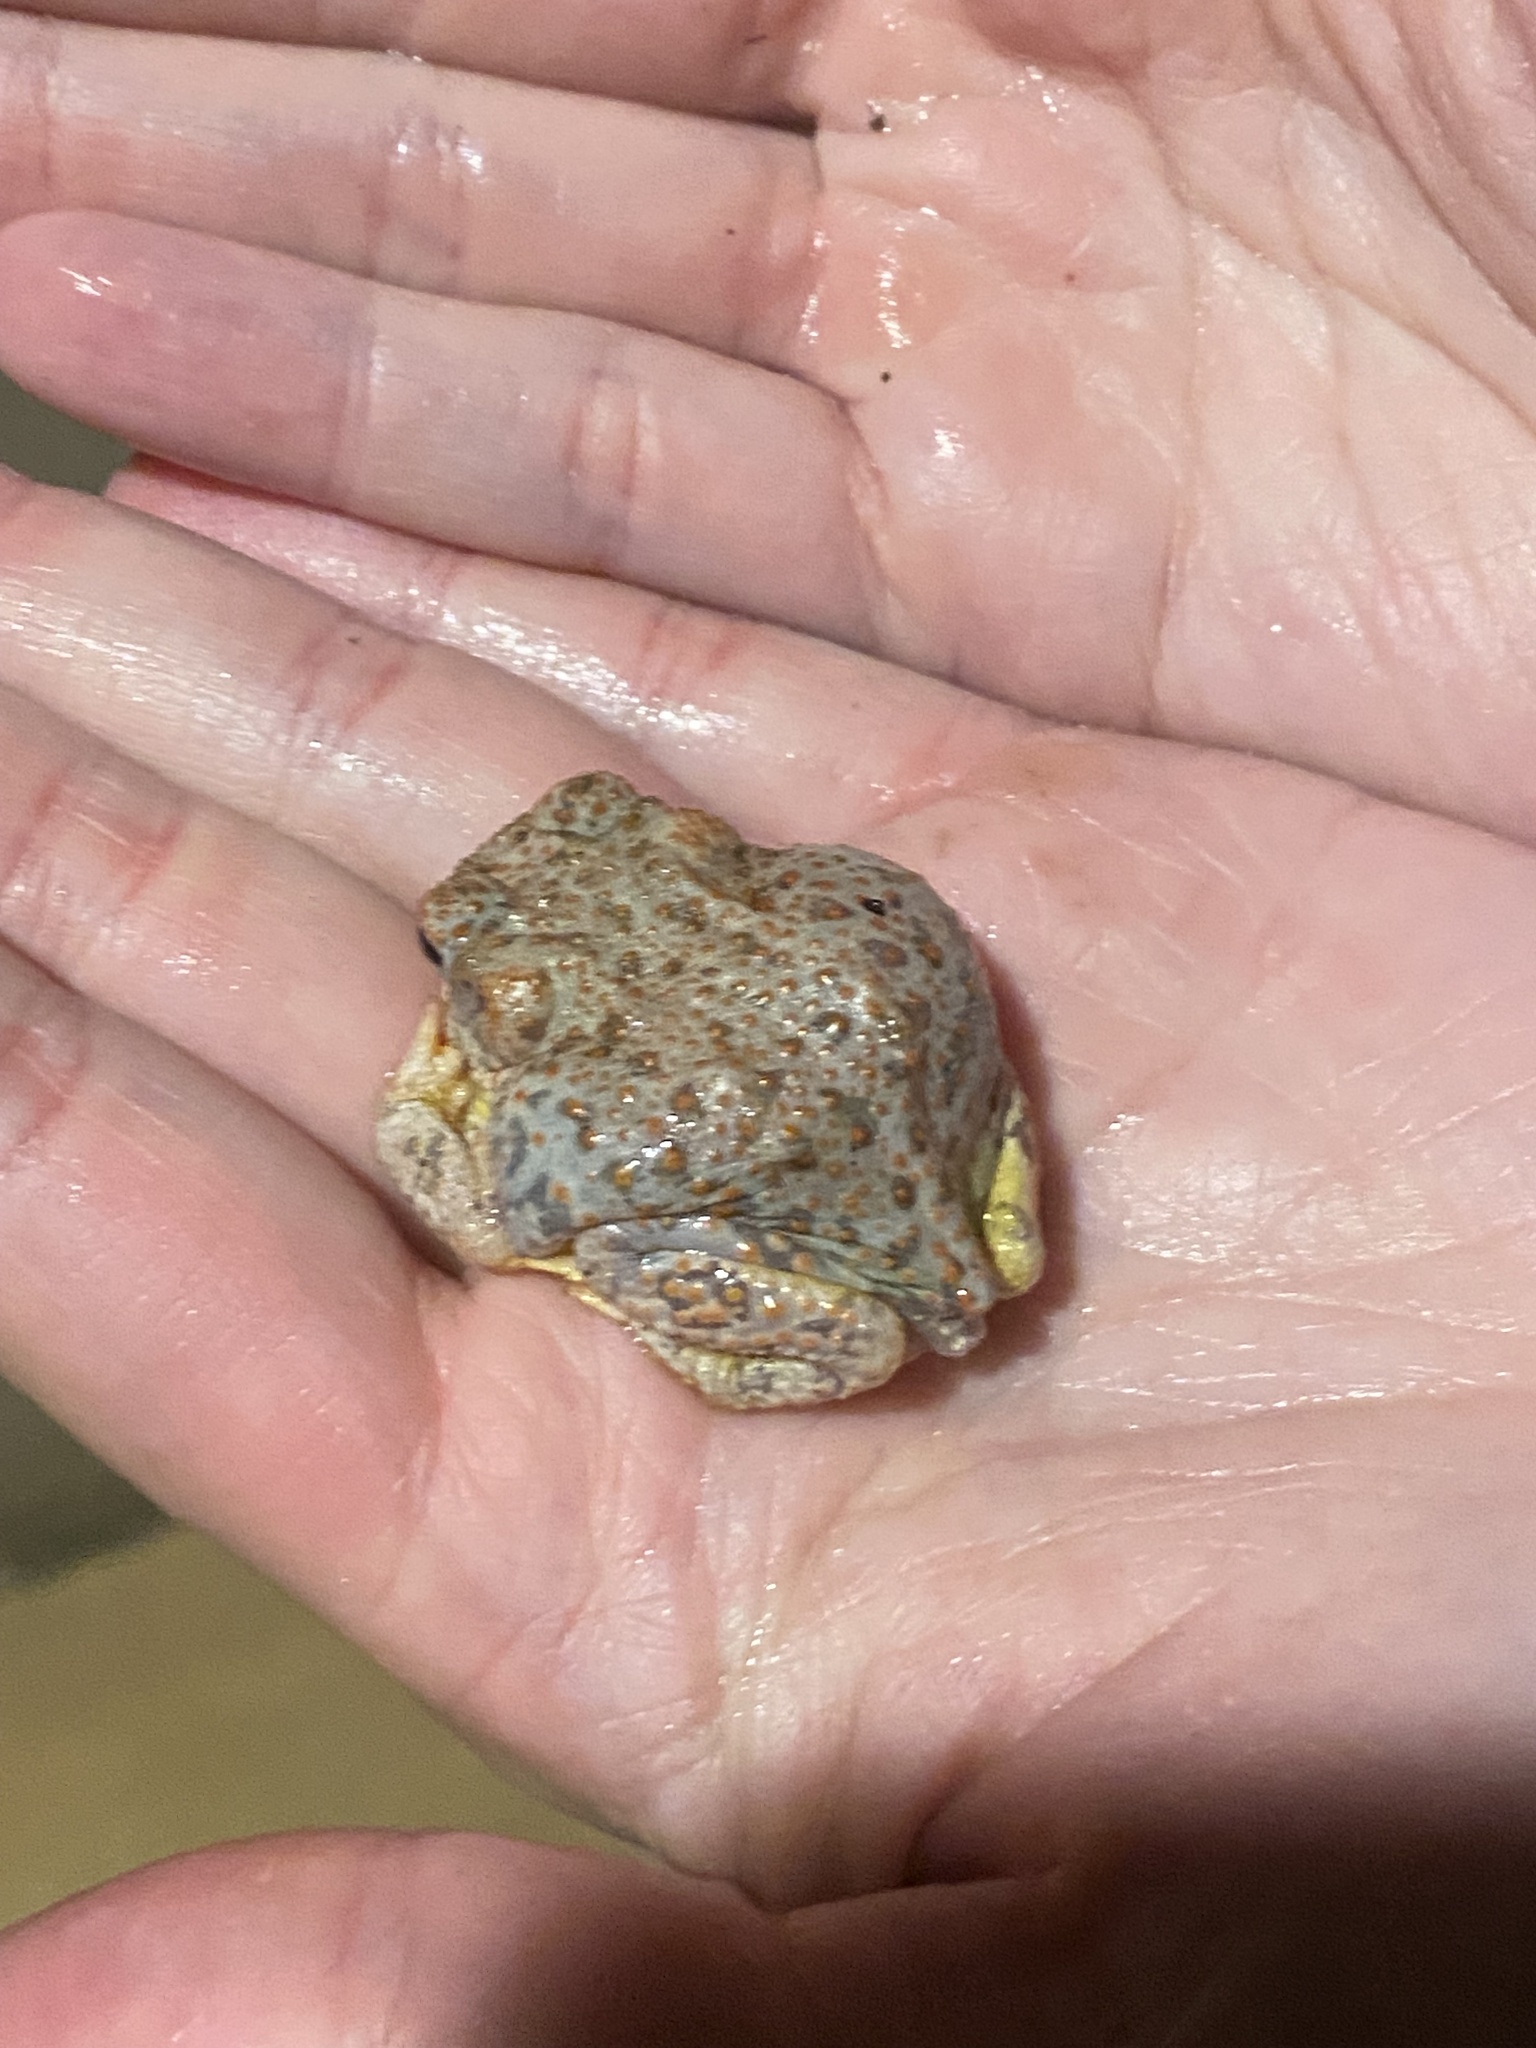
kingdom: Animalia
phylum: Chordata
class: Amphibia
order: Anura
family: Bufonidae
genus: Anaxyrus
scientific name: Anaxyrus punctatus
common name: Red-spotted toad
